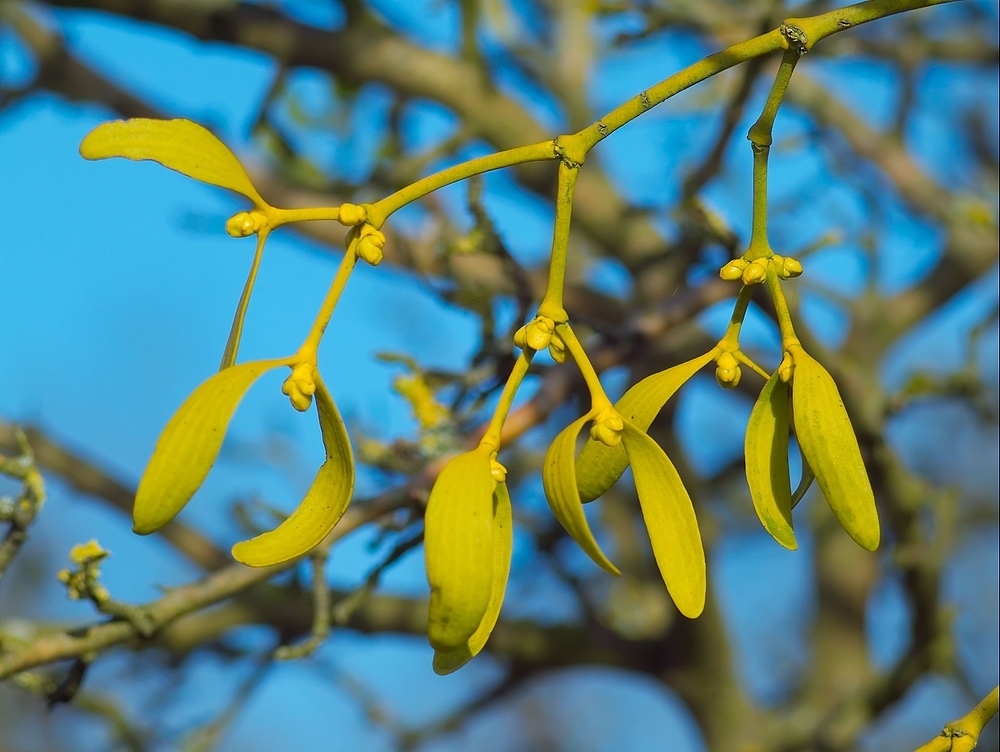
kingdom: Plantae
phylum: Tracheophyta
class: Magnoliopsida
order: Santalales
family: Viscaceae
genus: Viscum
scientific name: Viscum album
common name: Mistletoe
